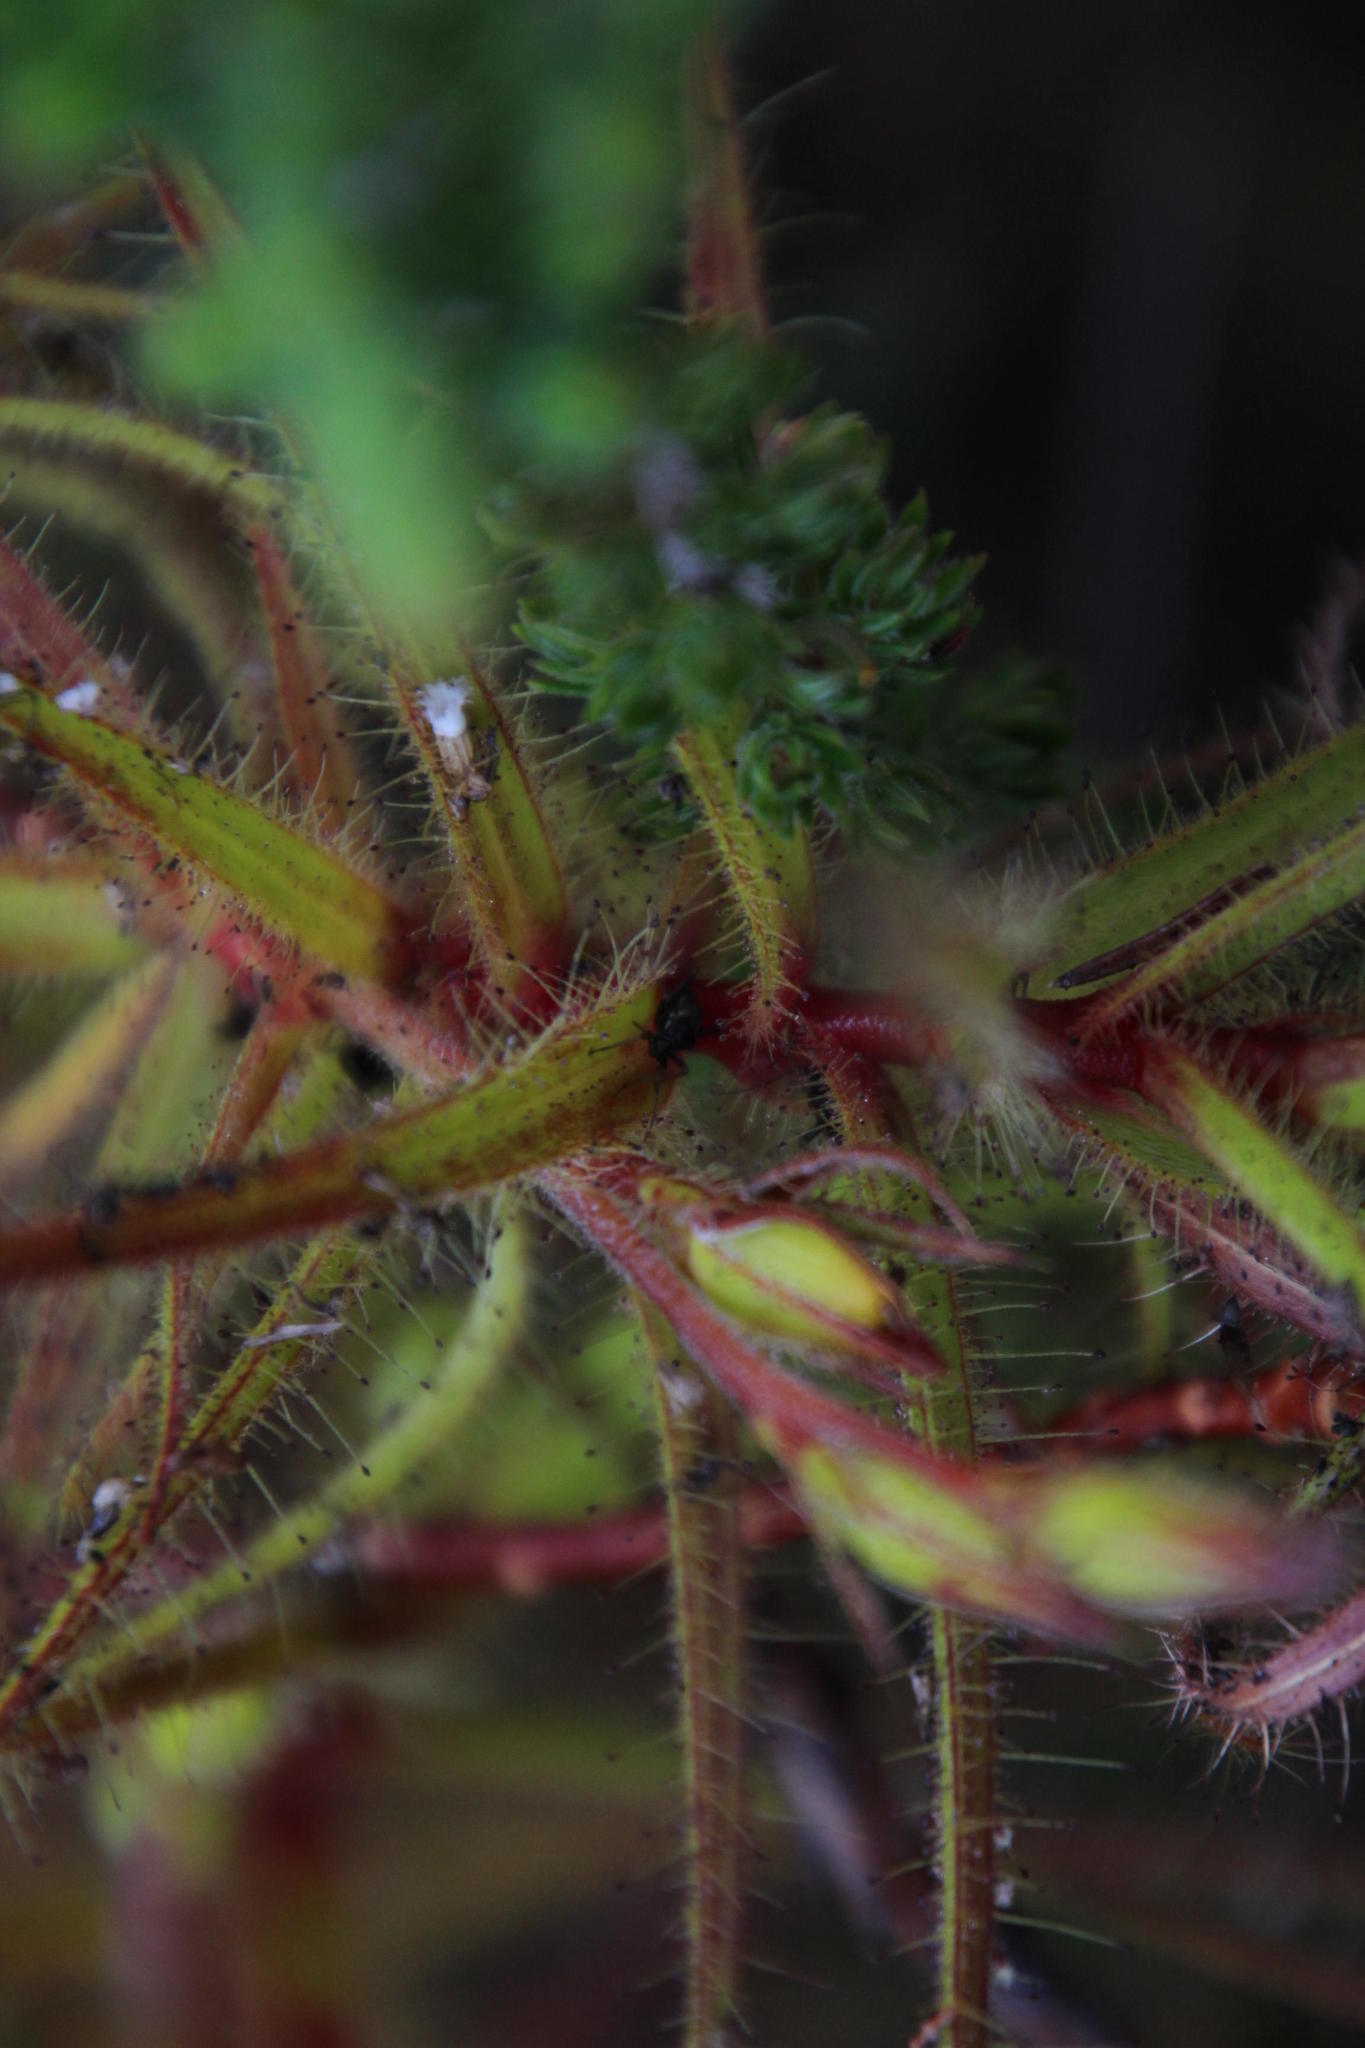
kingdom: Plantae
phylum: Tracheophyta
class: Magnoliopsida
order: Ericales
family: Roridulaceae
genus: Roridula
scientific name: Roridula gorgonias
